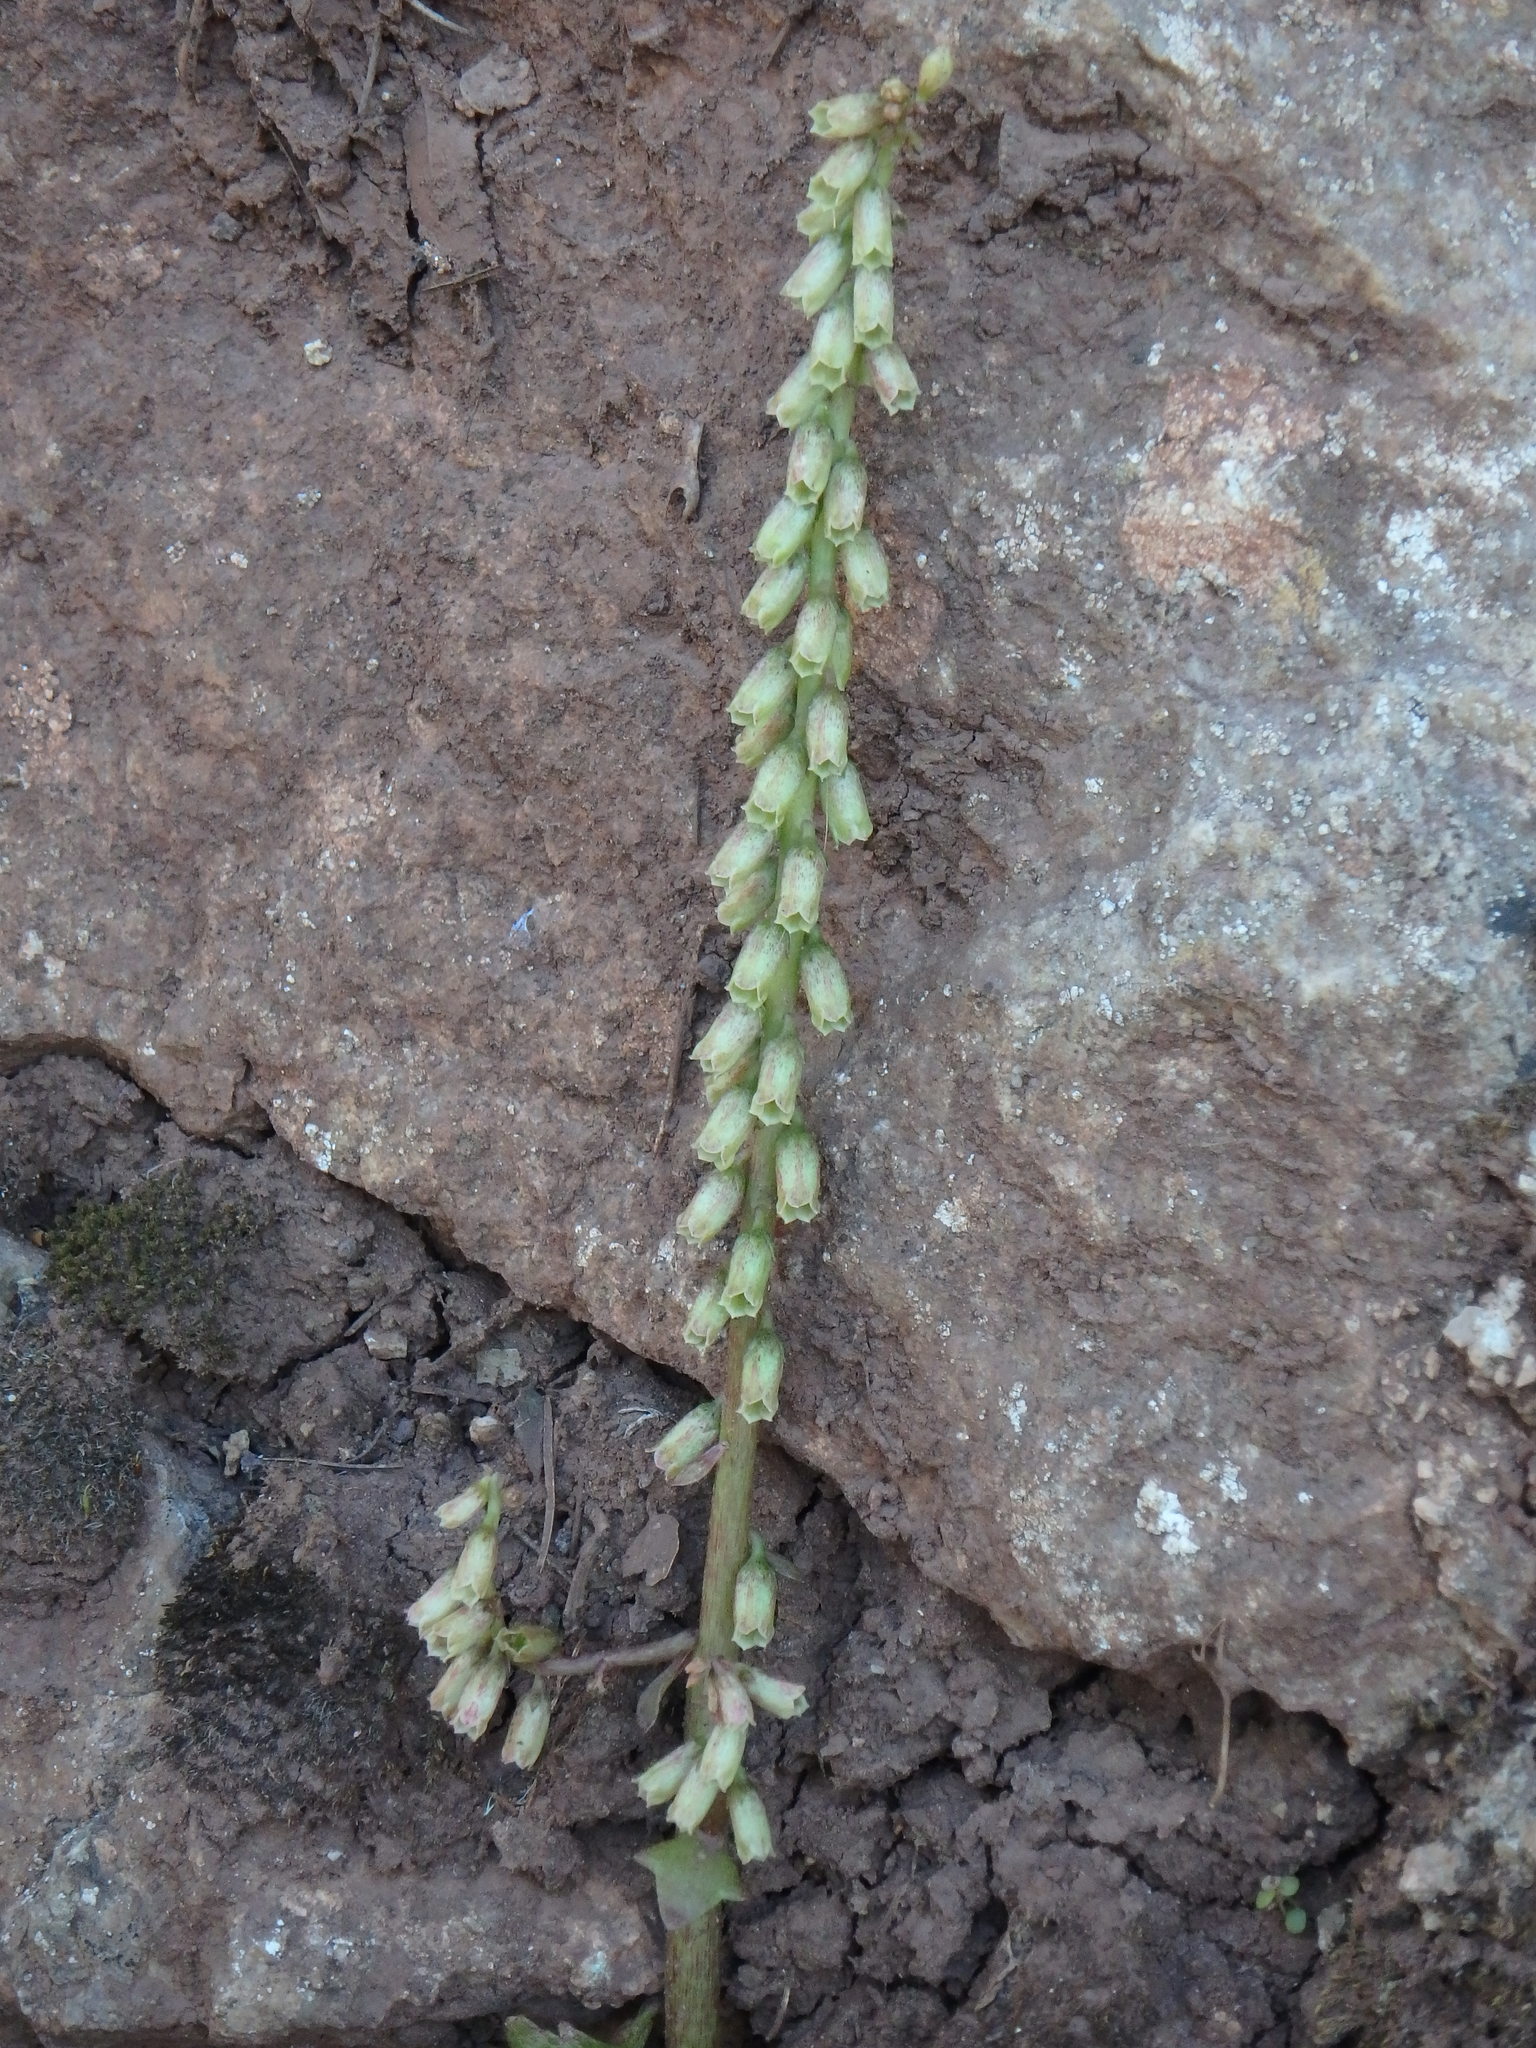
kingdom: Plantae
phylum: Tracheophyta
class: Magnoliopsida
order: Saxifragales
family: Crassulaceae
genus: Umbilicus
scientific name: Umbilicus rupestris
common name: Navelwort
